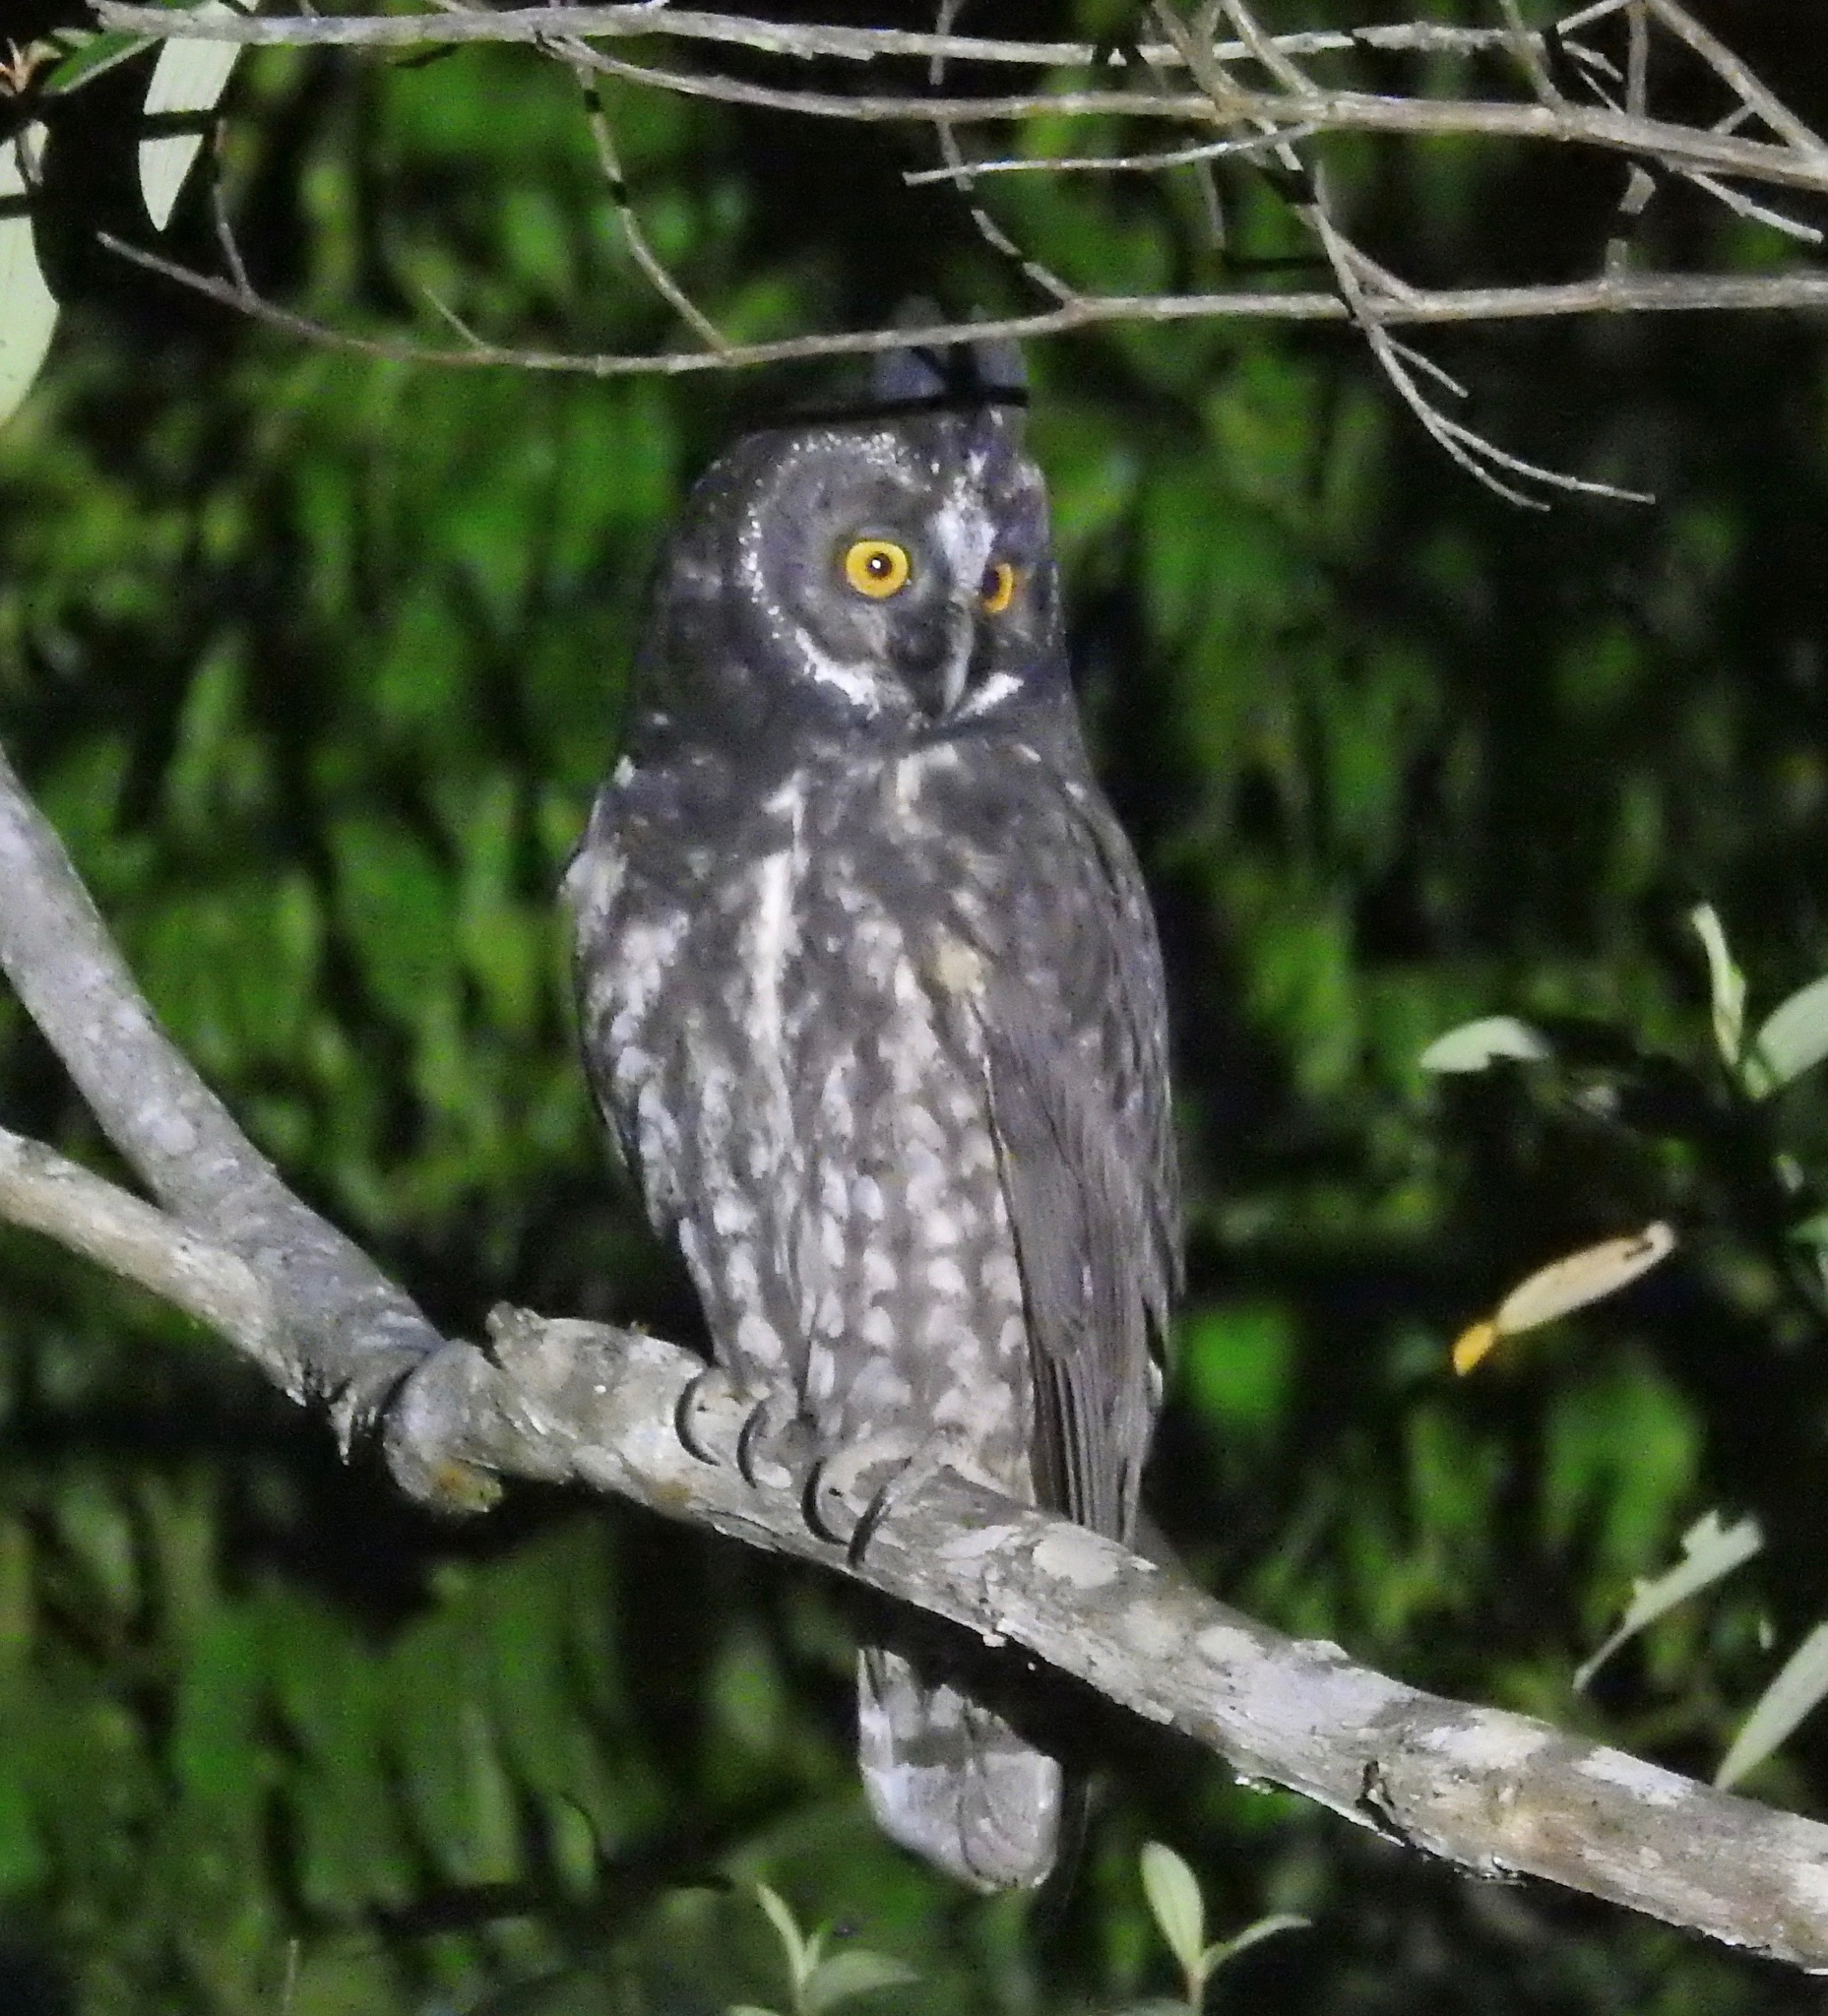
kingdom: Animalia
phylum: Chordata
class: Aves
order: Strigiformes
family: Strigidae
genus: Asio
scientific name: Asio stygius
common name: Stygian owl
